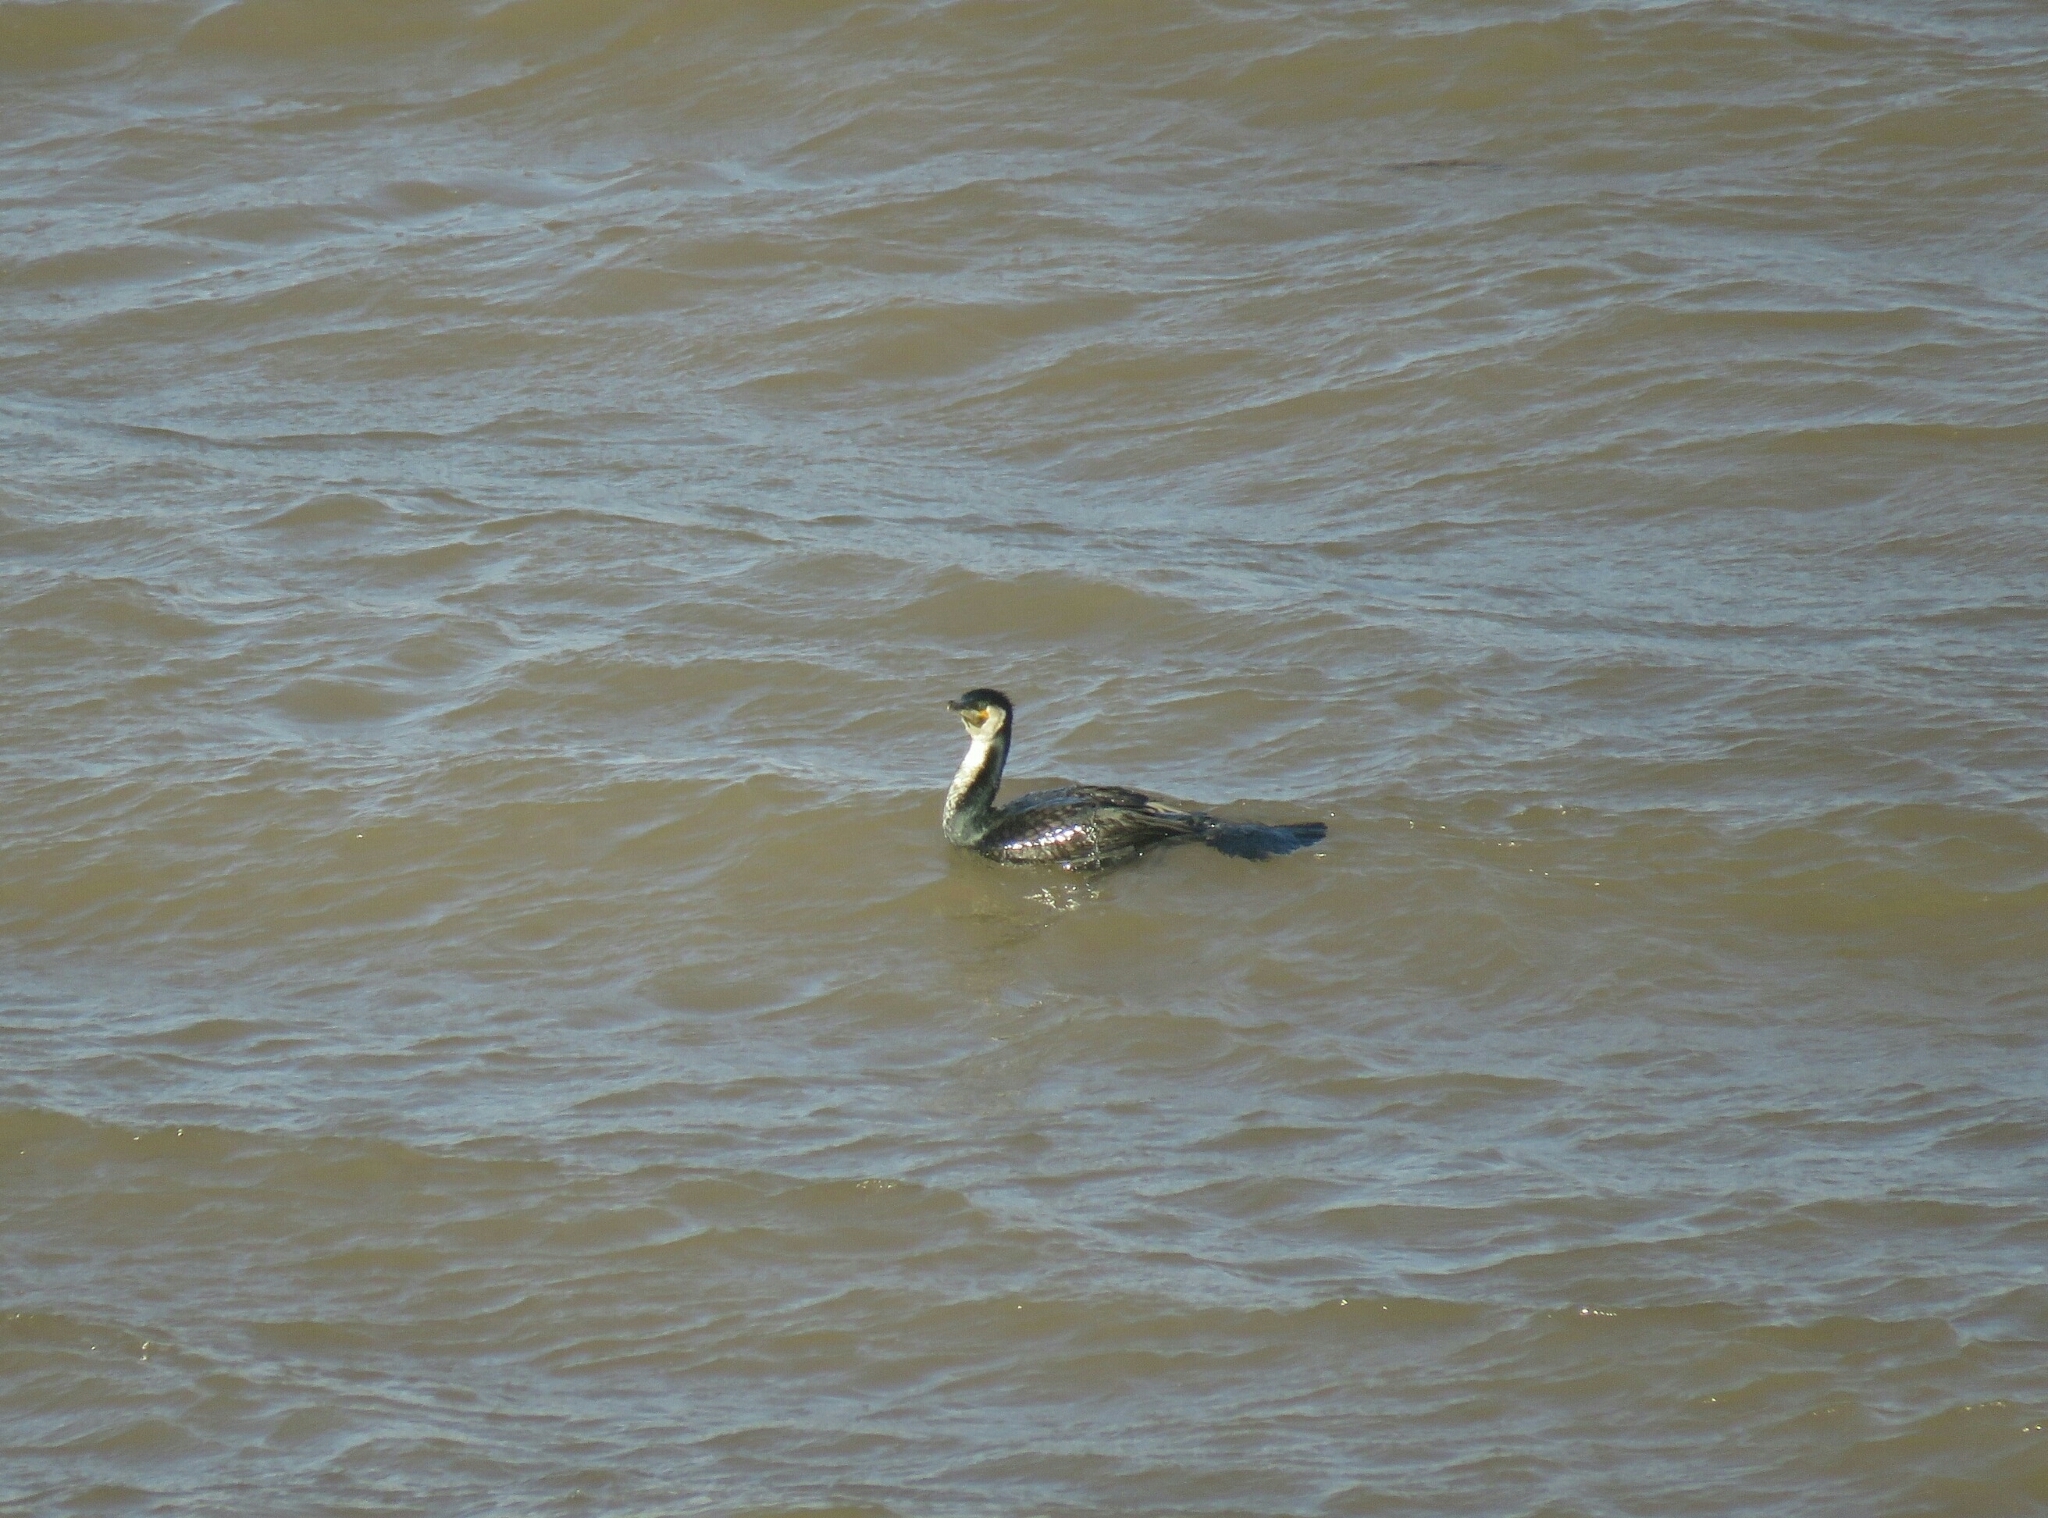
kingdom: Animalia
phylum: Chordata
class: Aves
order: Suliformes
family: Phalacrocoracidae
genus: Phalacrocorax
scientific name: Phalacrocorax carbo
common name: Great cormorant
